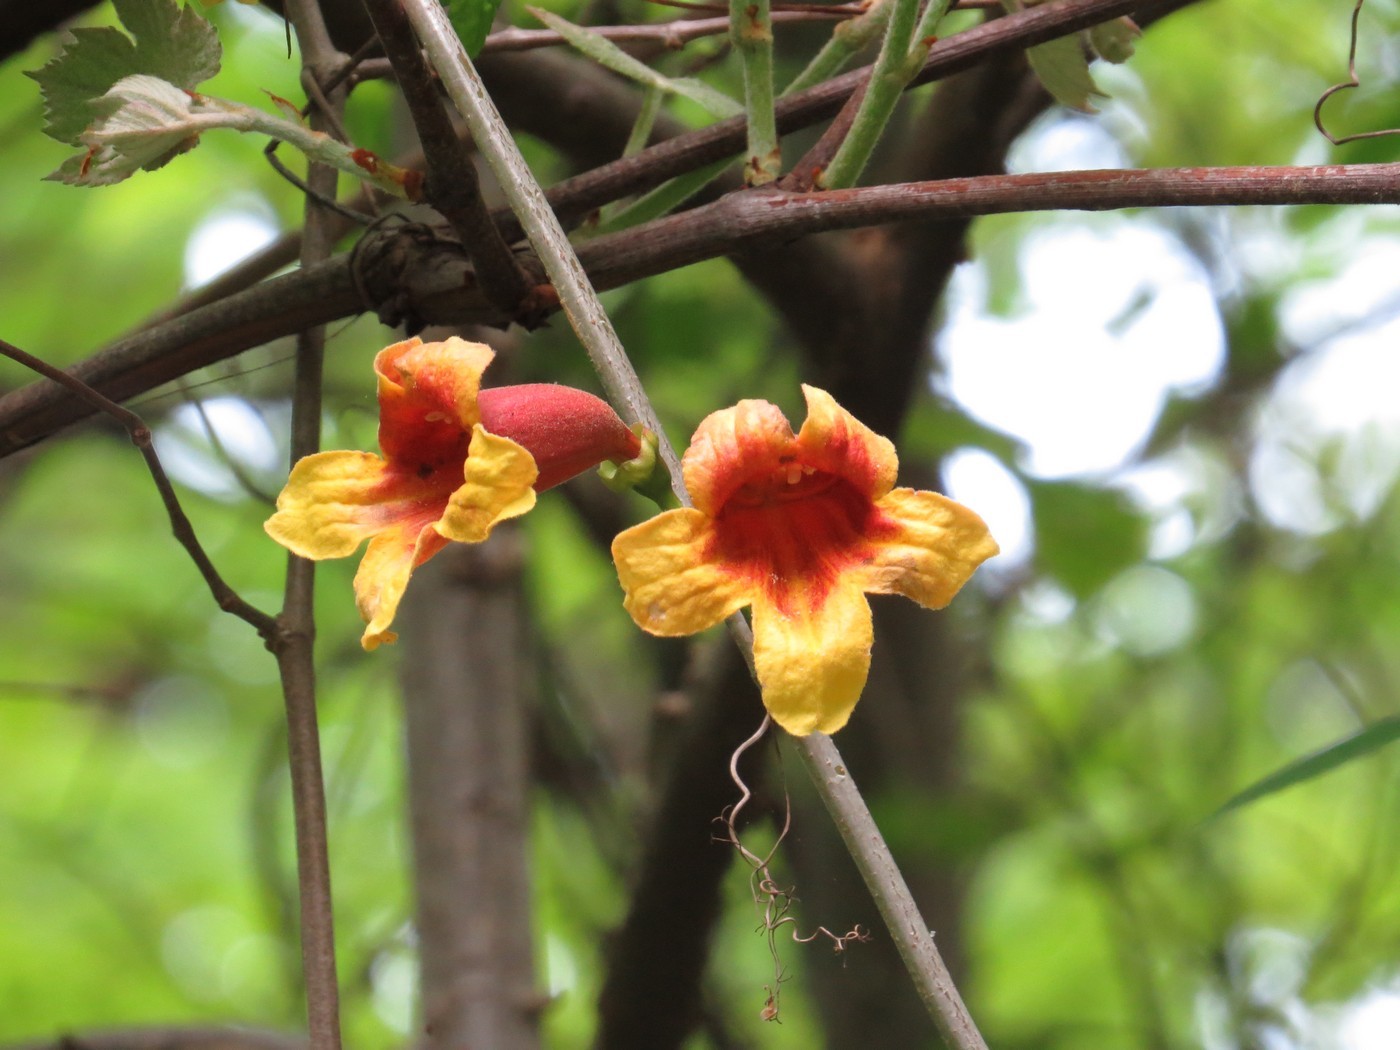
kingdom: Plantae
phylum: Tracheophyta
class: Magnoliopsida
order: Lamiales
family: Bignoniaceae
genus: Bignonia
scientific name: Bignonia capreolata
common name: Crossvine
